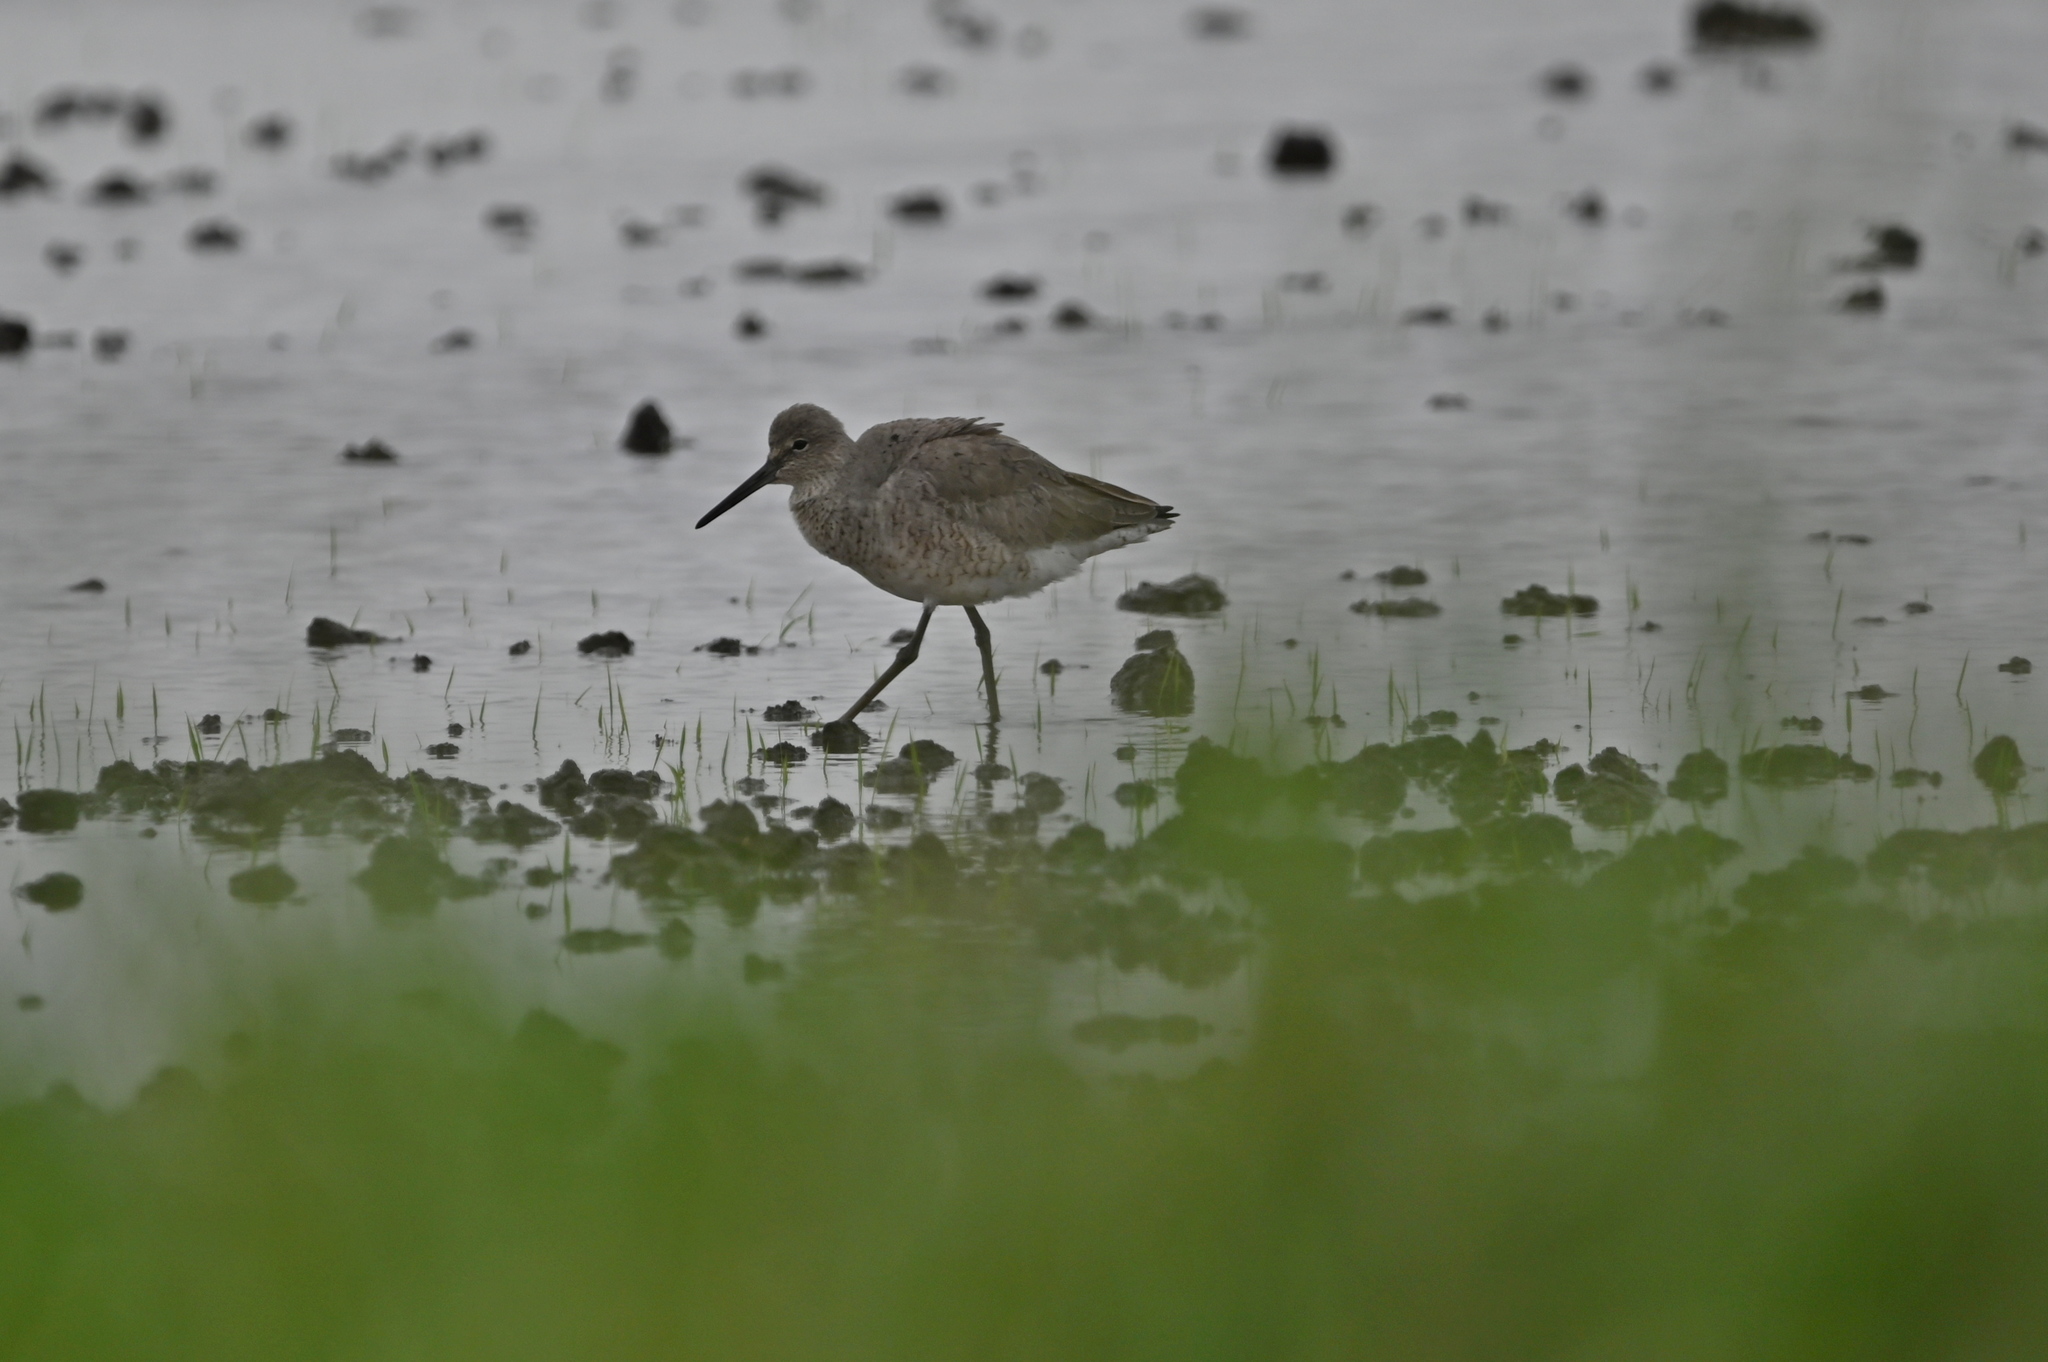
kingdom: Animalia
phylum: Chordata
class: Aves
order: Charadriiformes
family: Scolopacidae
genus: Tringa
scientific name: Tringa semipalmata
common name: Willet
